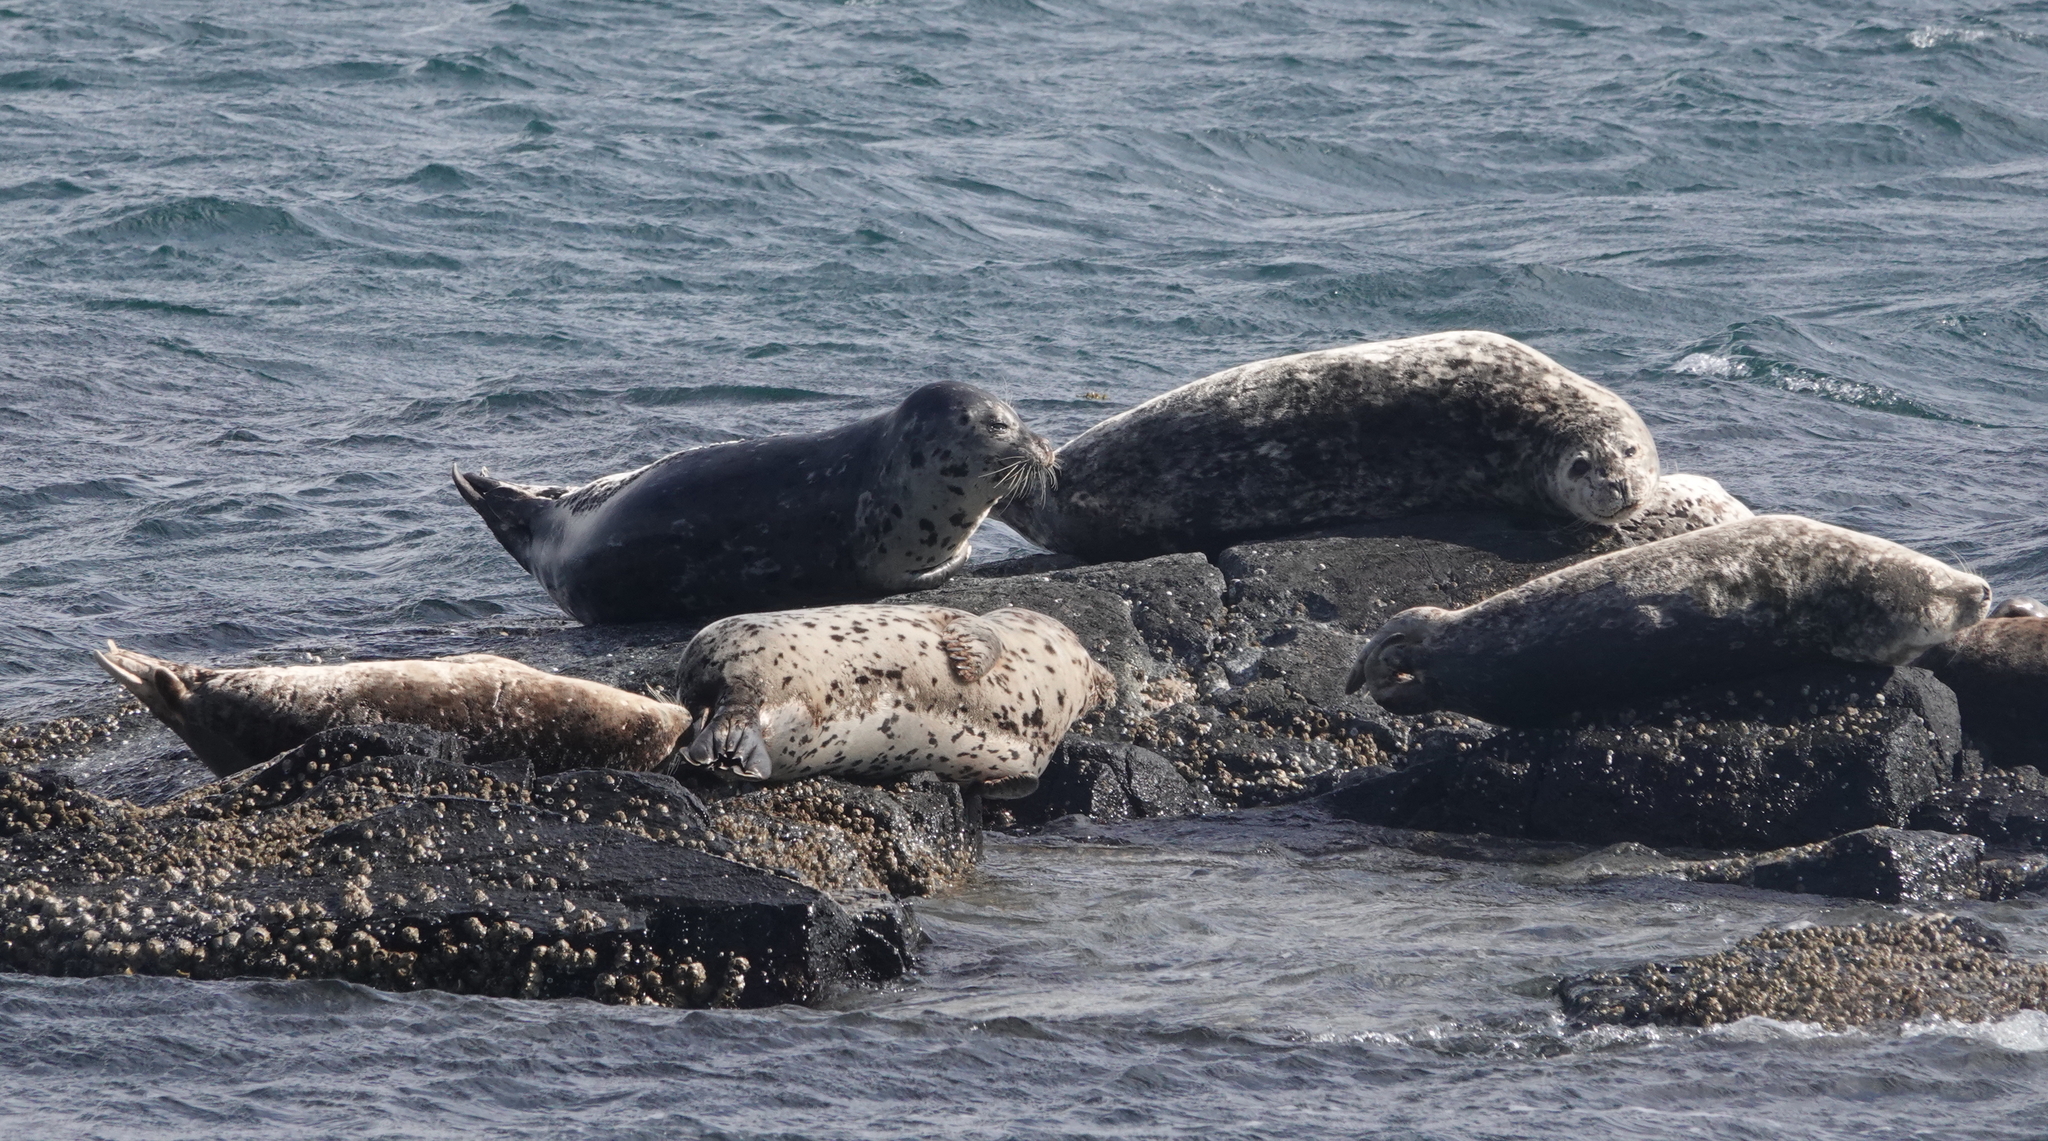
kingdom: Animalia
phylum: Chordata
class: Mammalia
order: Carnivora
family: Phocidae
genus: Phoca
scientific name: Phoca vitulina
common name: Harbor seal
